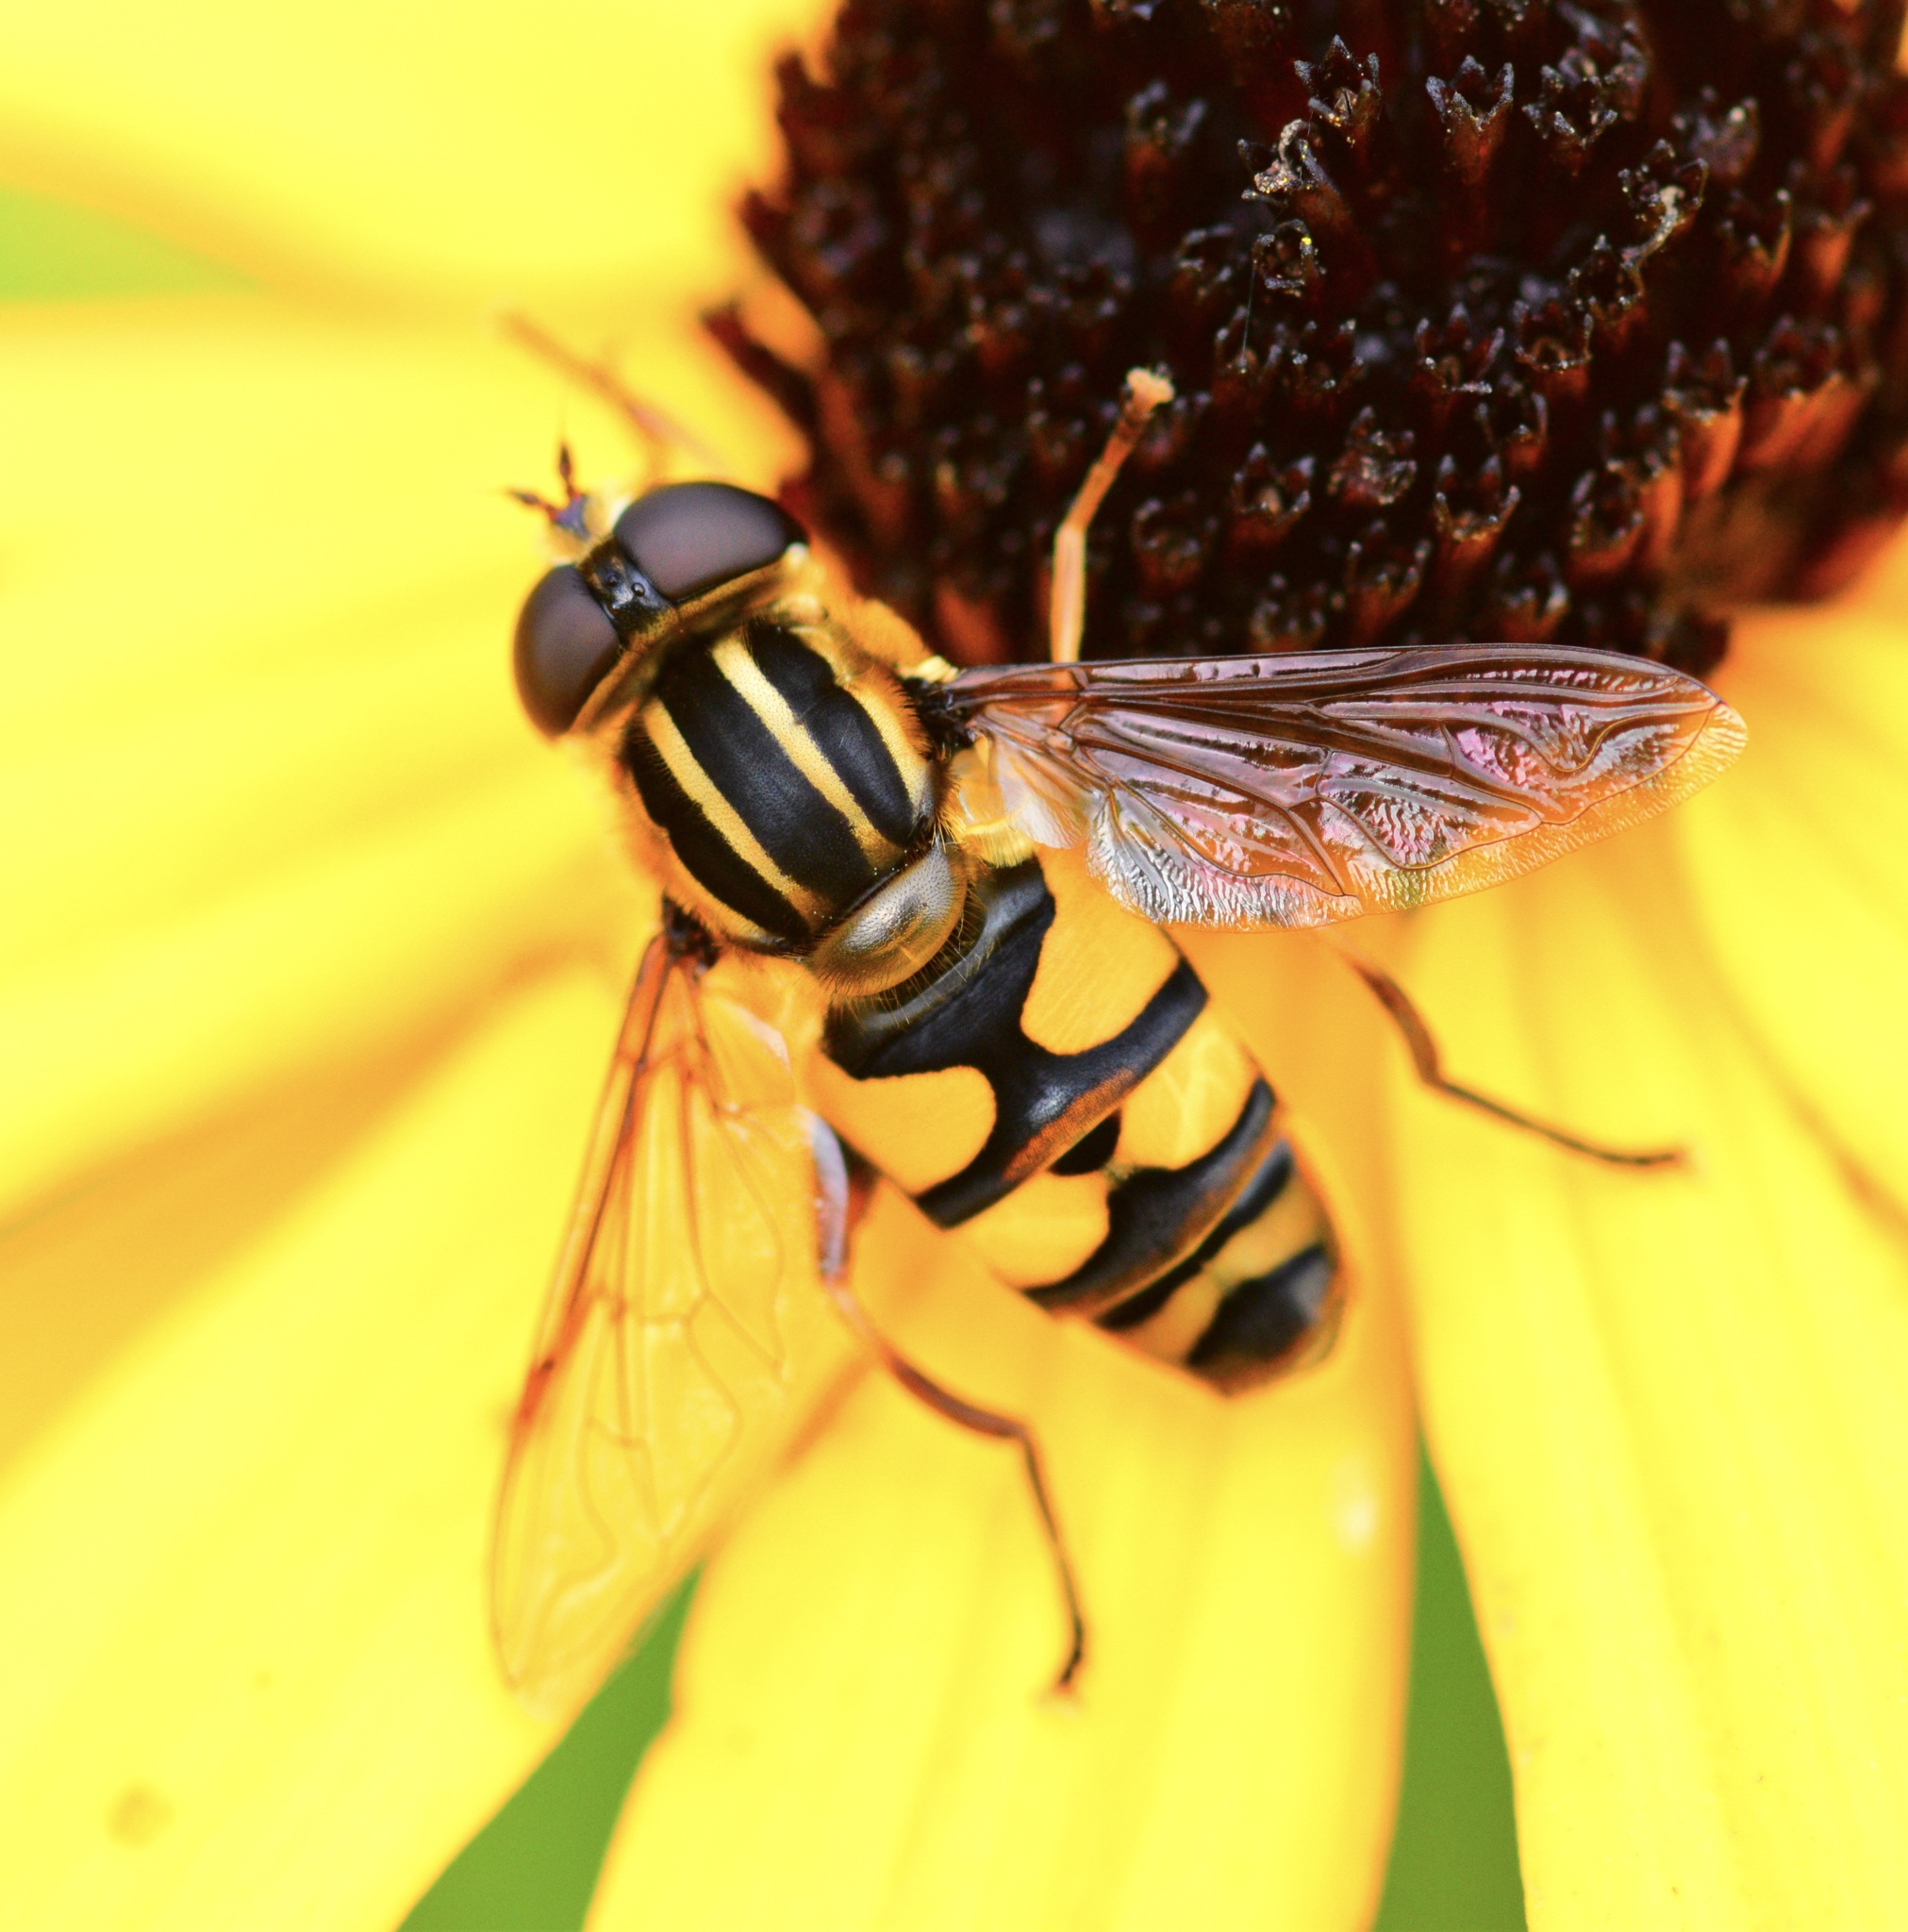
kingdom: Animalia
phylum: Arthropoda
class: Insecta
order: Diptera
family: Syrphidae
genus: Helophilus
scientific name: Helophilus fasciatus
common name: Narrow-headed marsh fly
